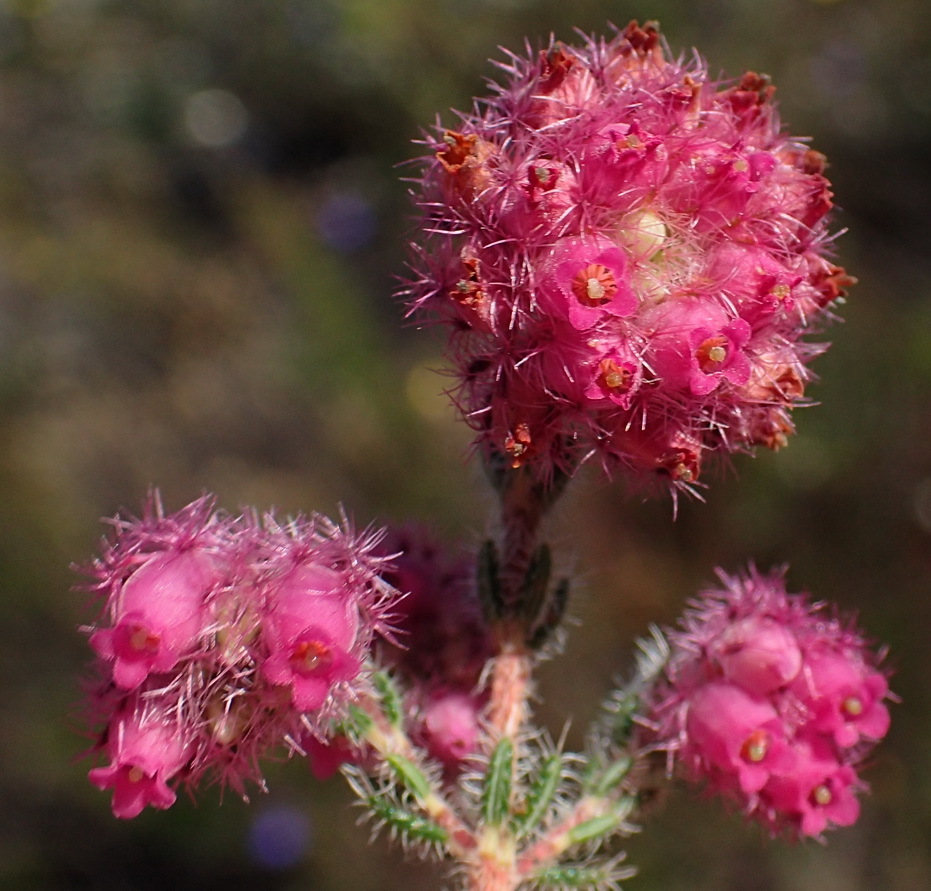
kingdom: Plantae
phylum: Tracheophyta
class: Magnoliopsida
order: Ericales
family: Ericaceae
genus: Erica
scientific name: Erica solandra
